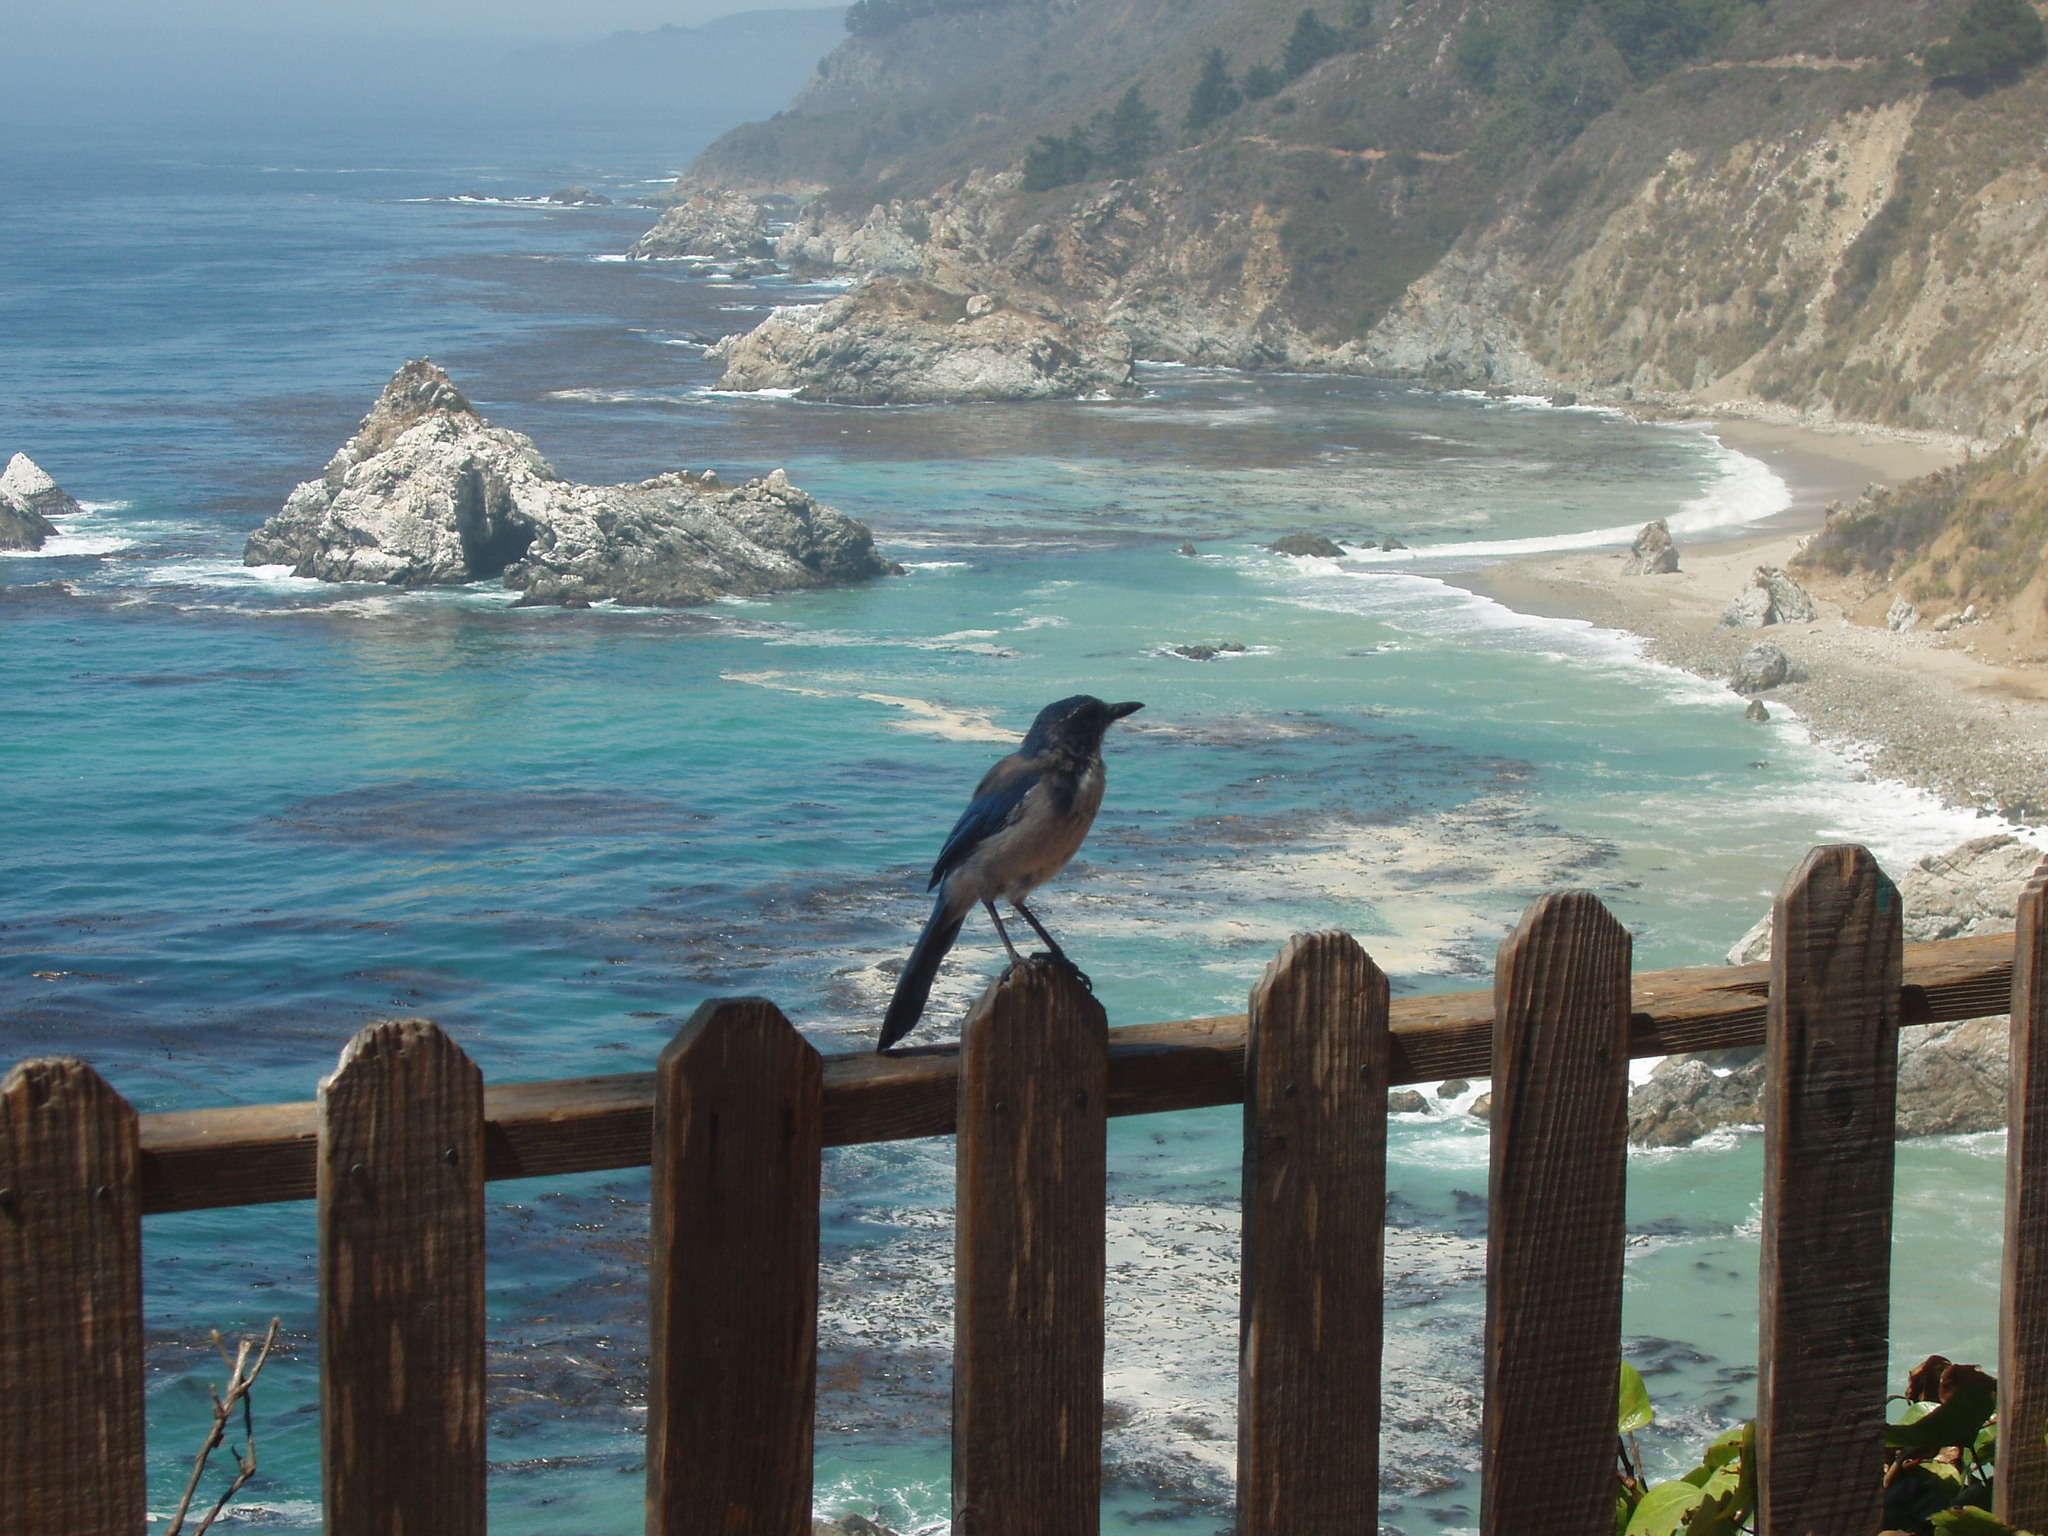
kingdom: Animalia
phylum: Chordata
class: Aves
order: Passeriformes
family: Corvidae
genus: Aphelocoma
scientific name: Aphelocoma californica
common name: California scrub-jay
